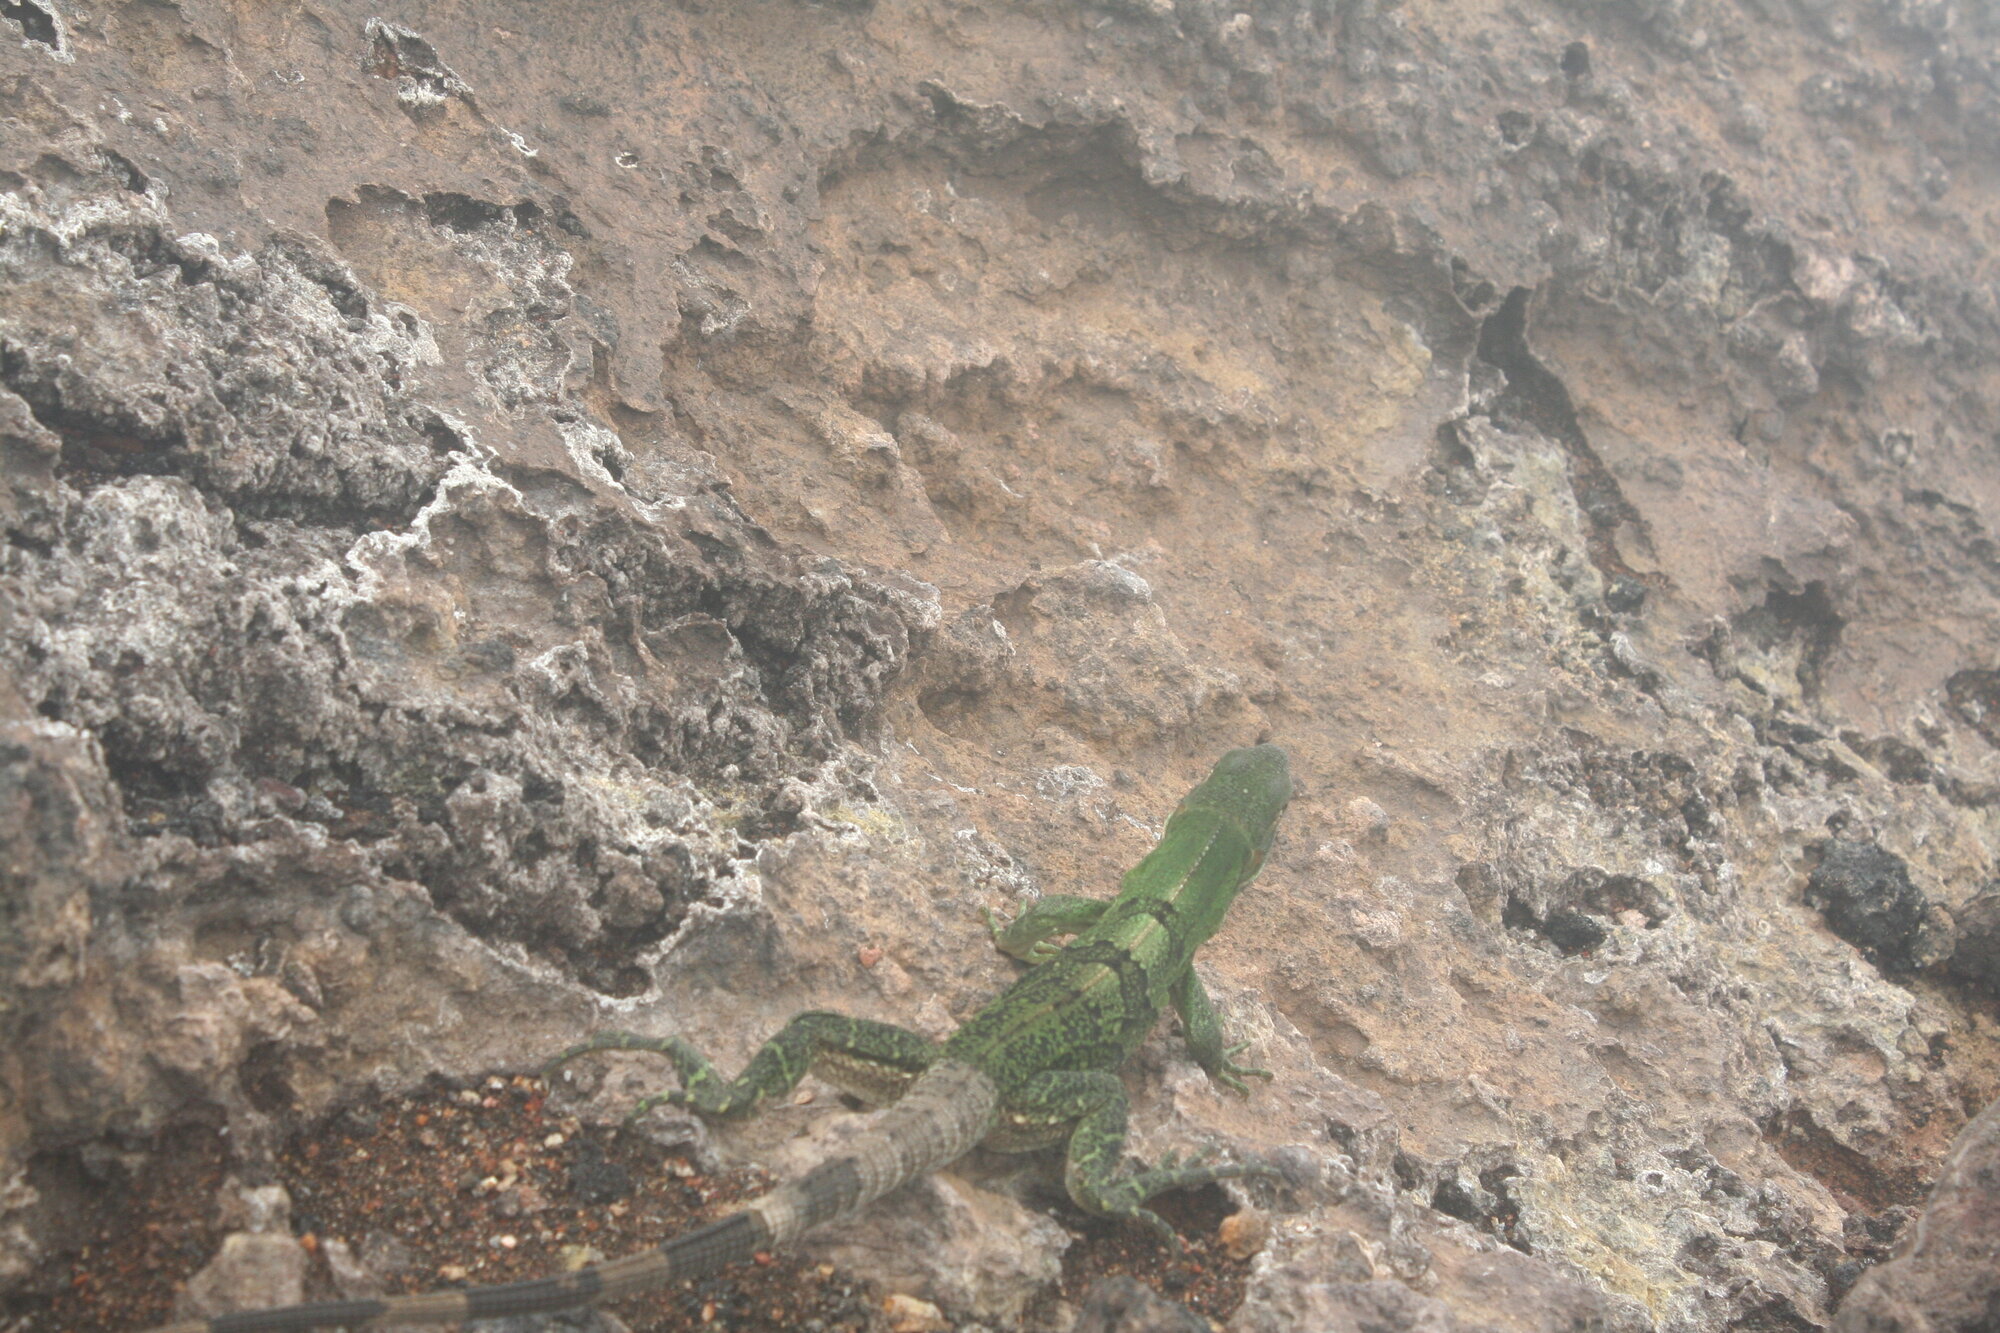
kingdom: Animalia
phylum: Chordata
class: Squamata
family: Iguanidae
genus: Ctenosaura
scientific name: Ctenosaura similis
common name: Black spiny-tailed iguana
